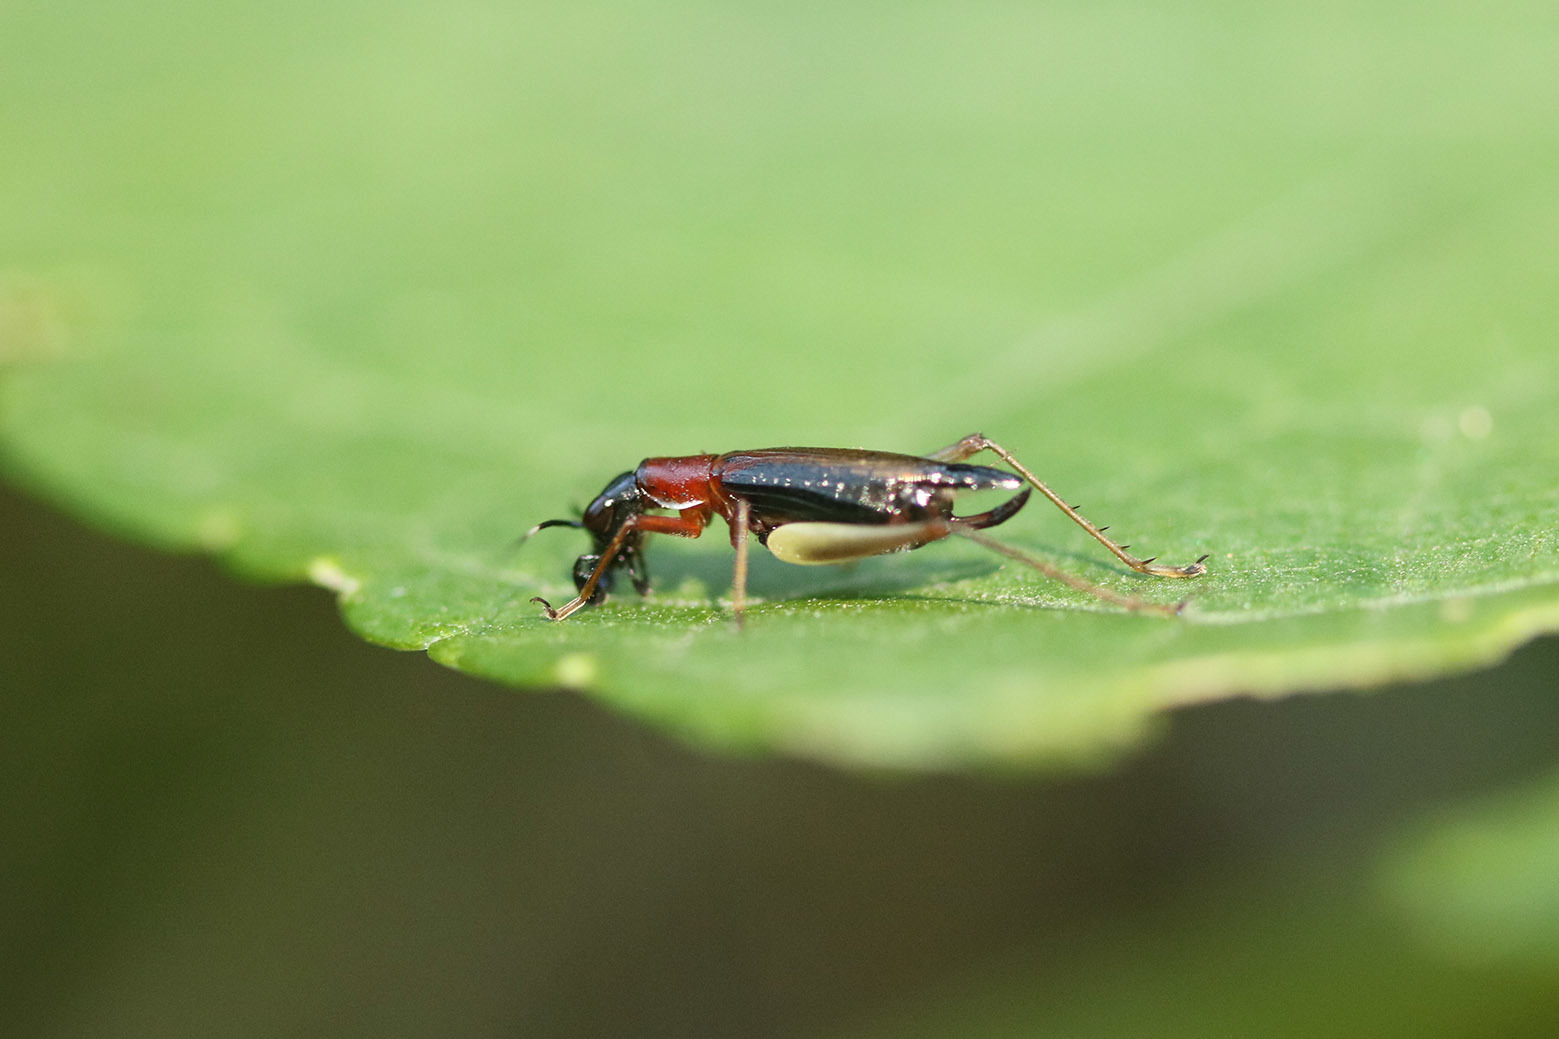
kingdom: Animalia
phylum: Arthropoda
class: Insecta
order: Orthoptera
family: Trigonidiidae
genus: Cranistus
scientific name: Cranistus colliurides
